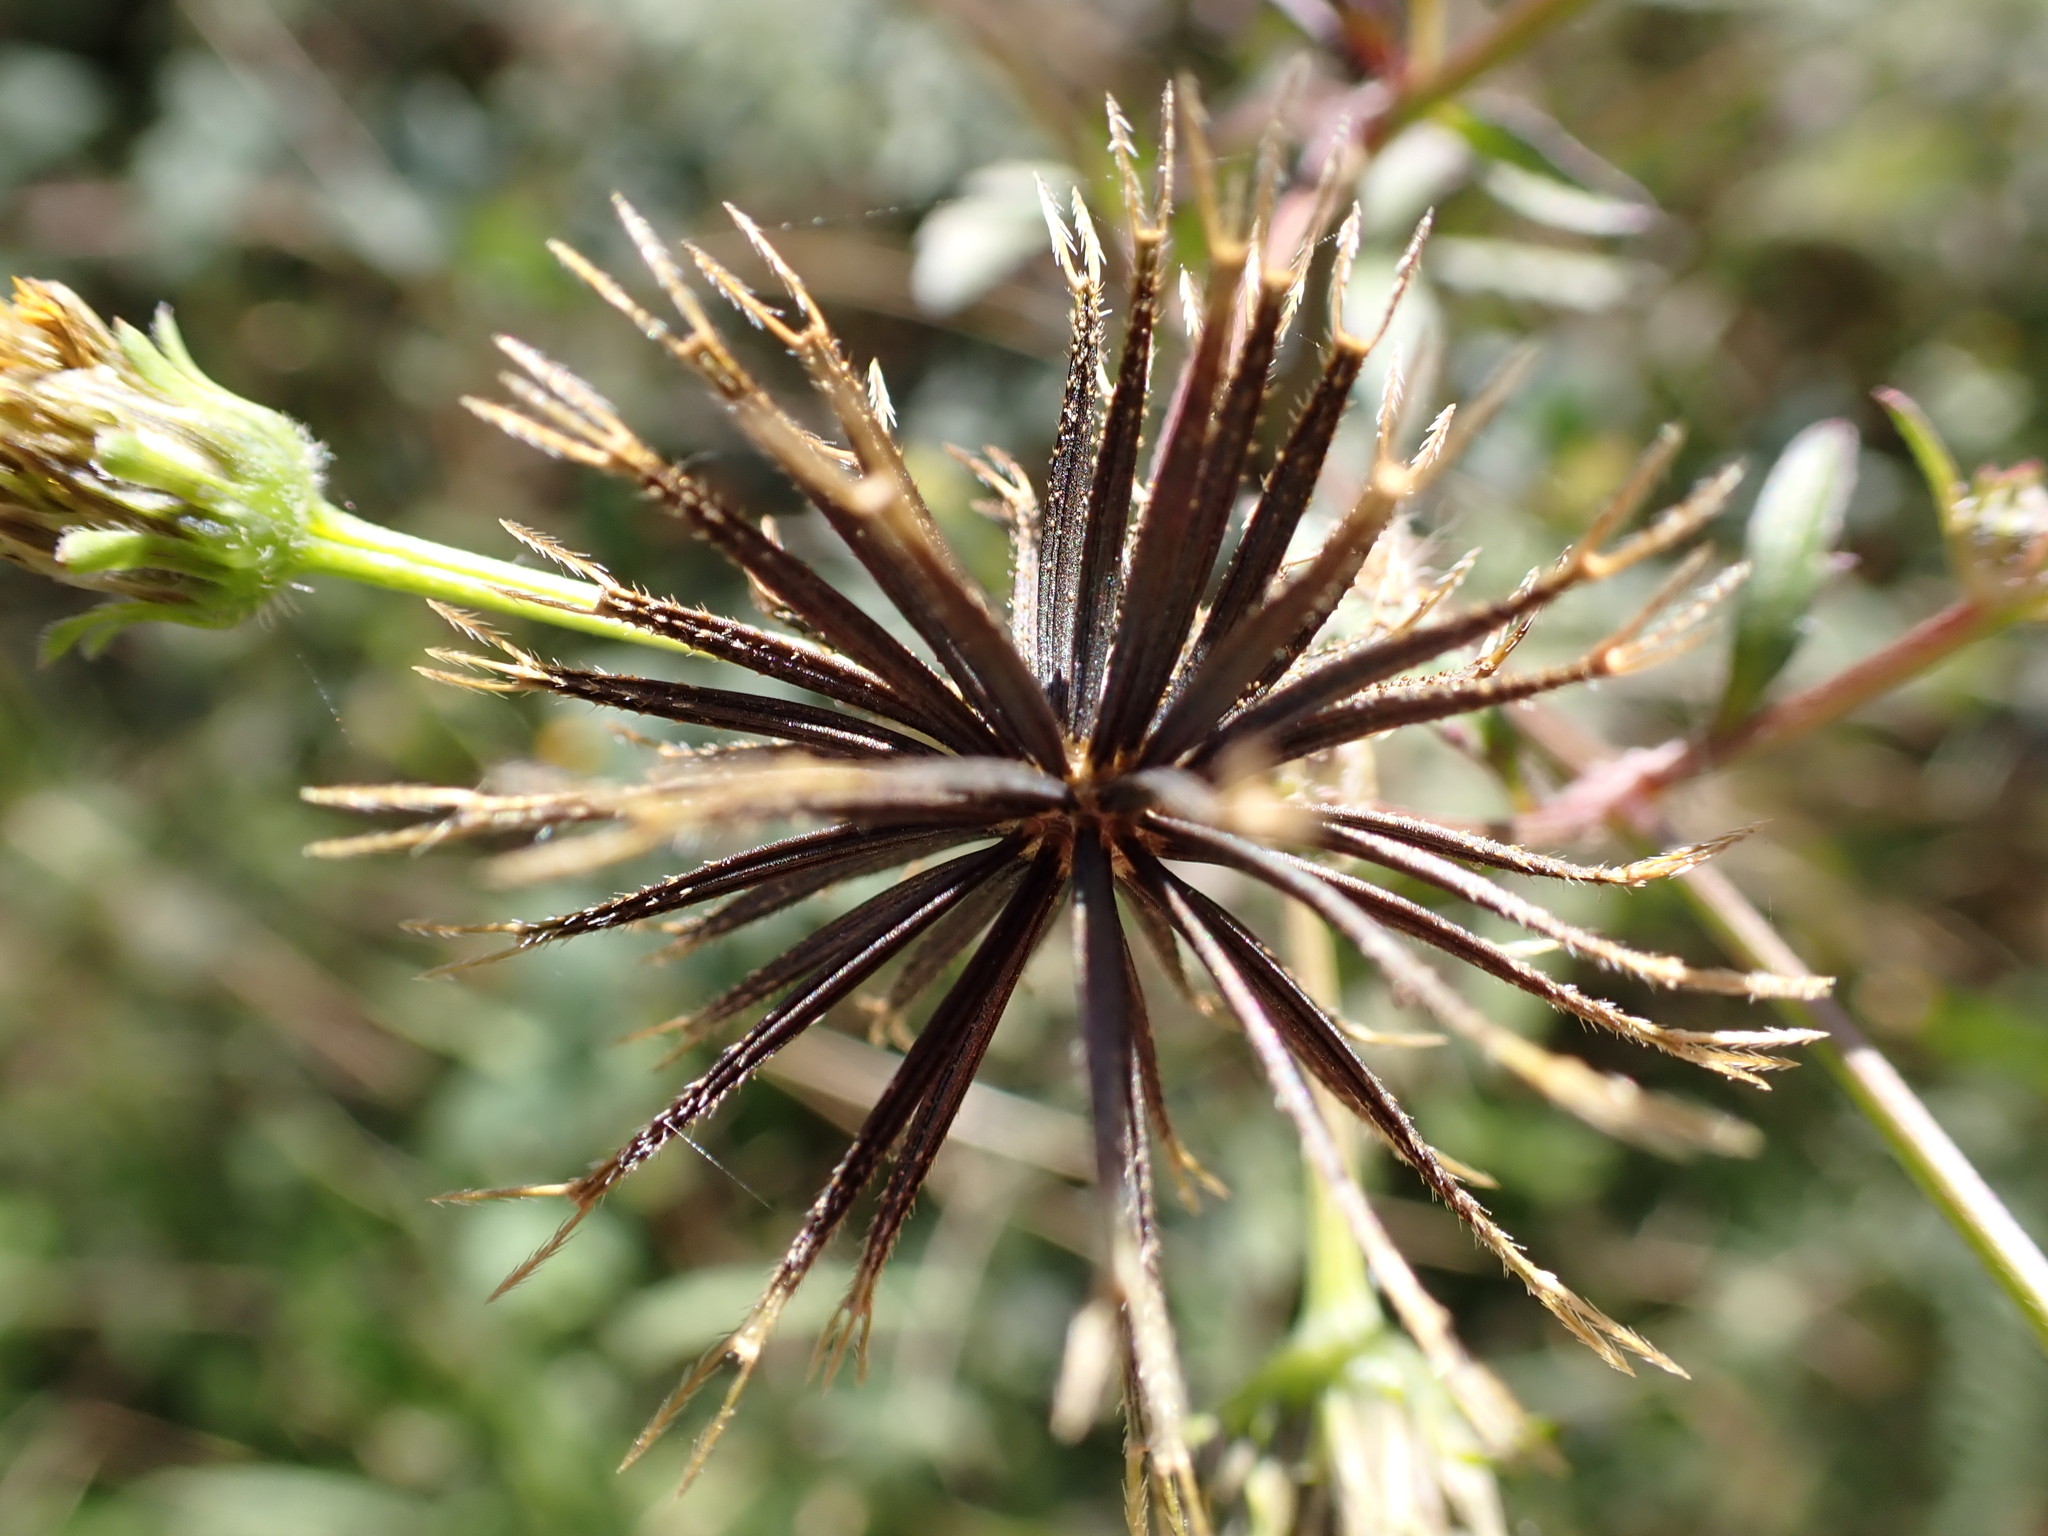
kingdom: Plantae
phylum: Tracheophyta
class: Magnoliopsida
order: Asterales
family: Asteraceae
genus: Bidens
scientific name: Bidens pilosa
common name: Black-jack
